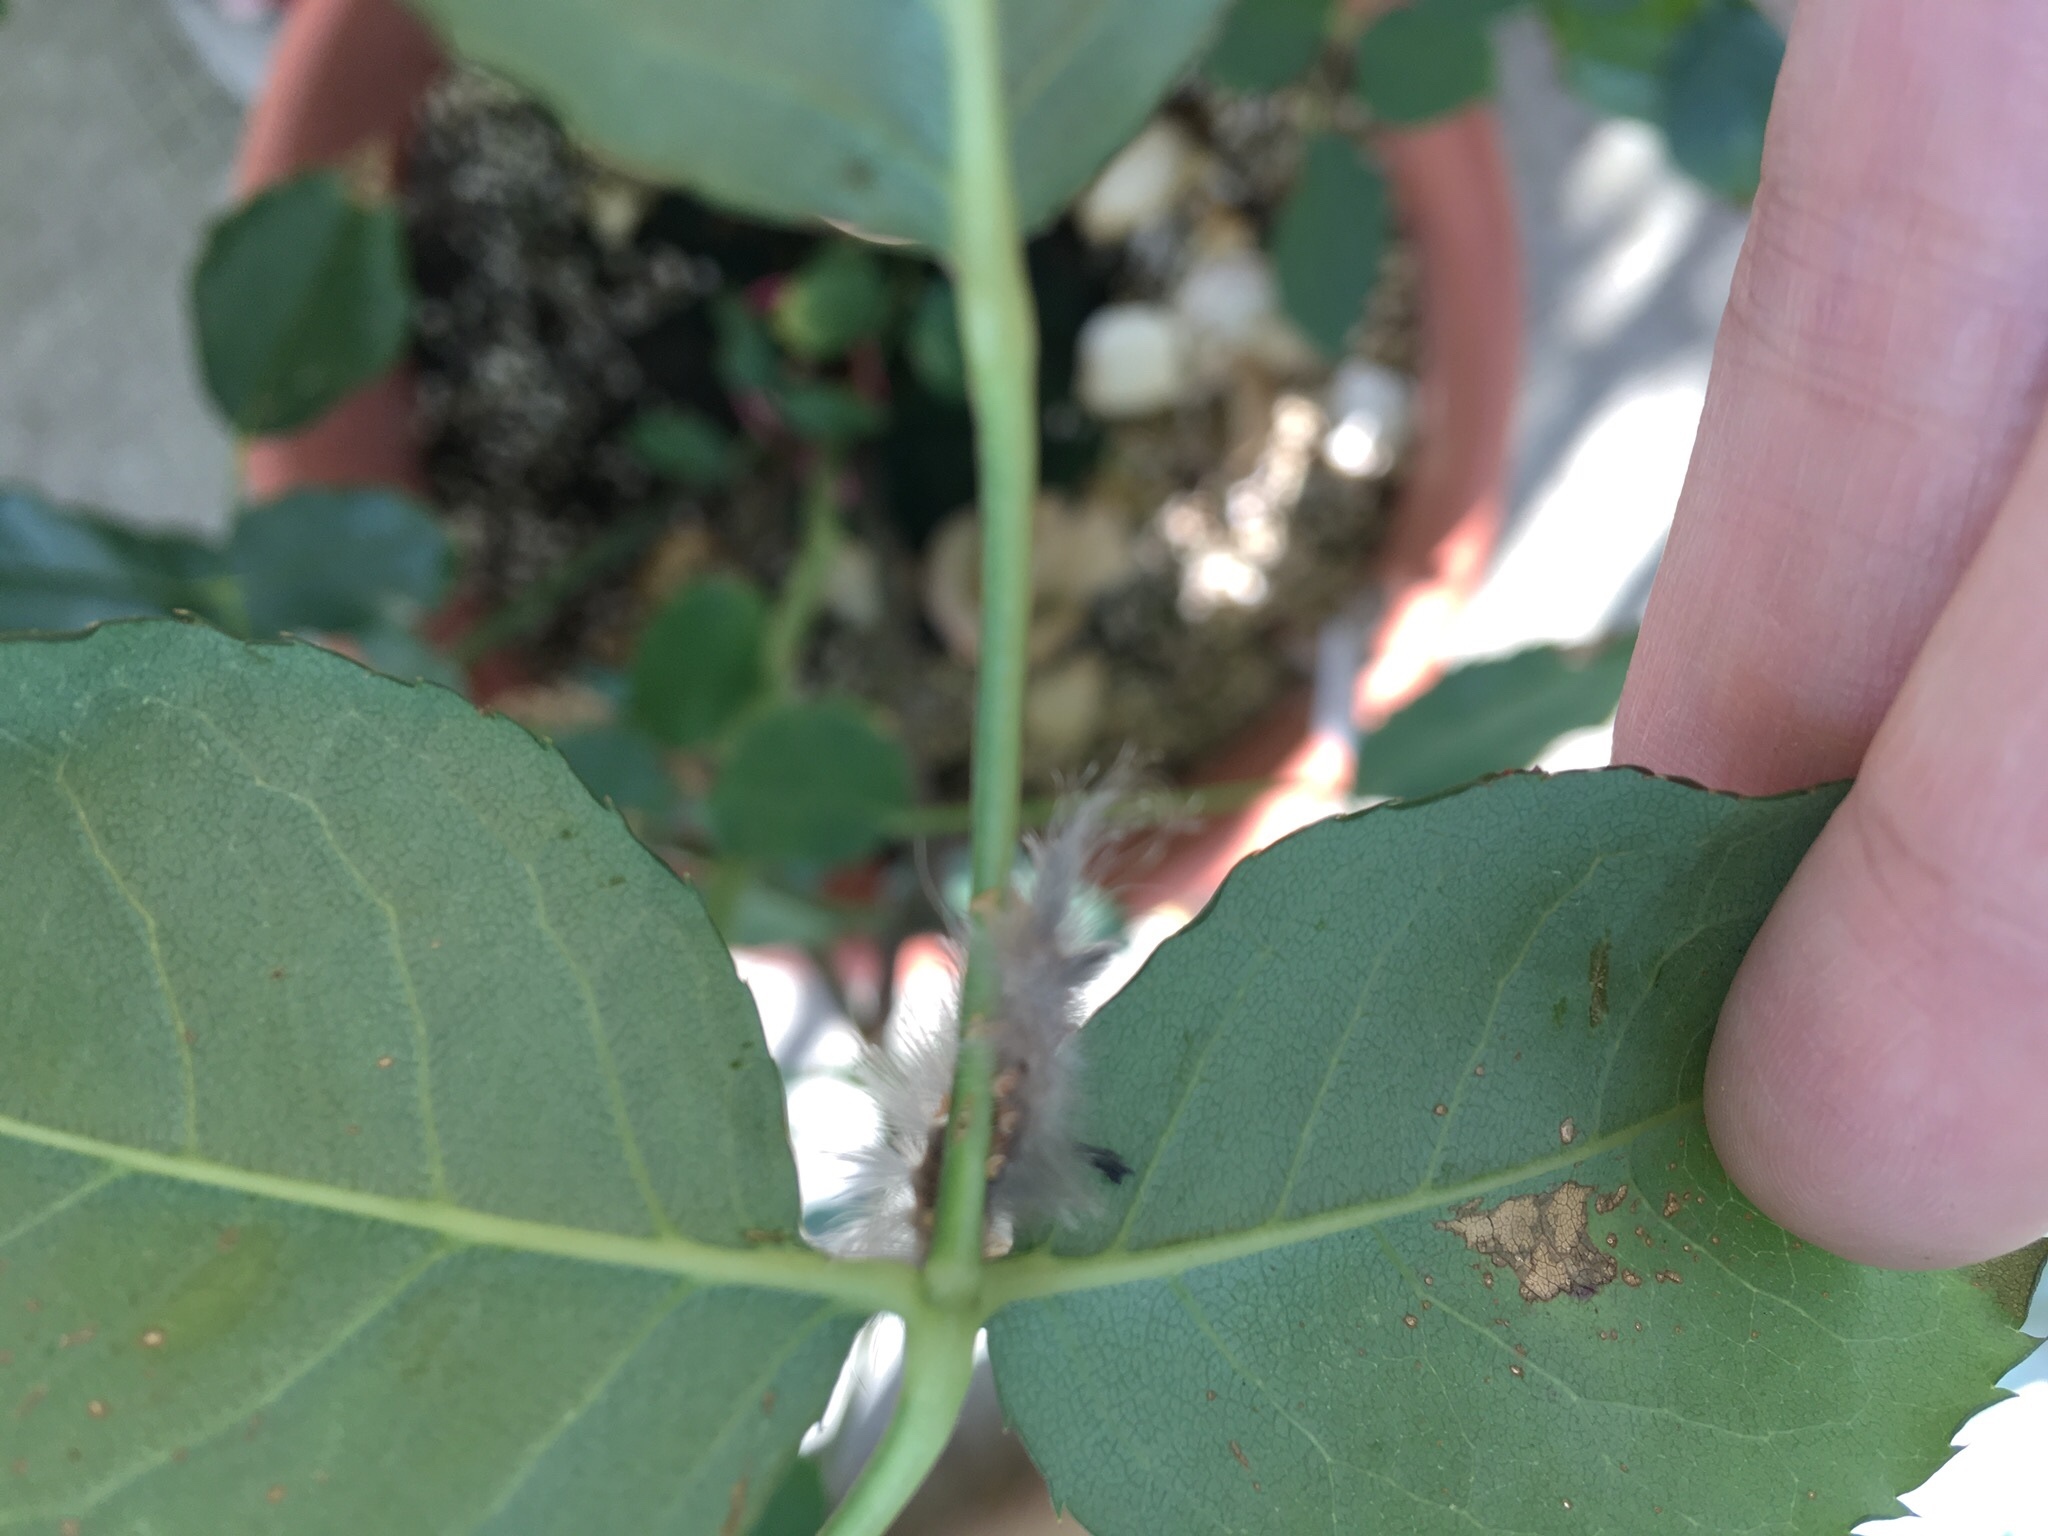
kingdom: Animalia
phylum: Arthropoda
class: Insecta
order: Lepidoptera
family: Erebidae
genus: Dasychira
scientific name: Dasychira chekiangensis
